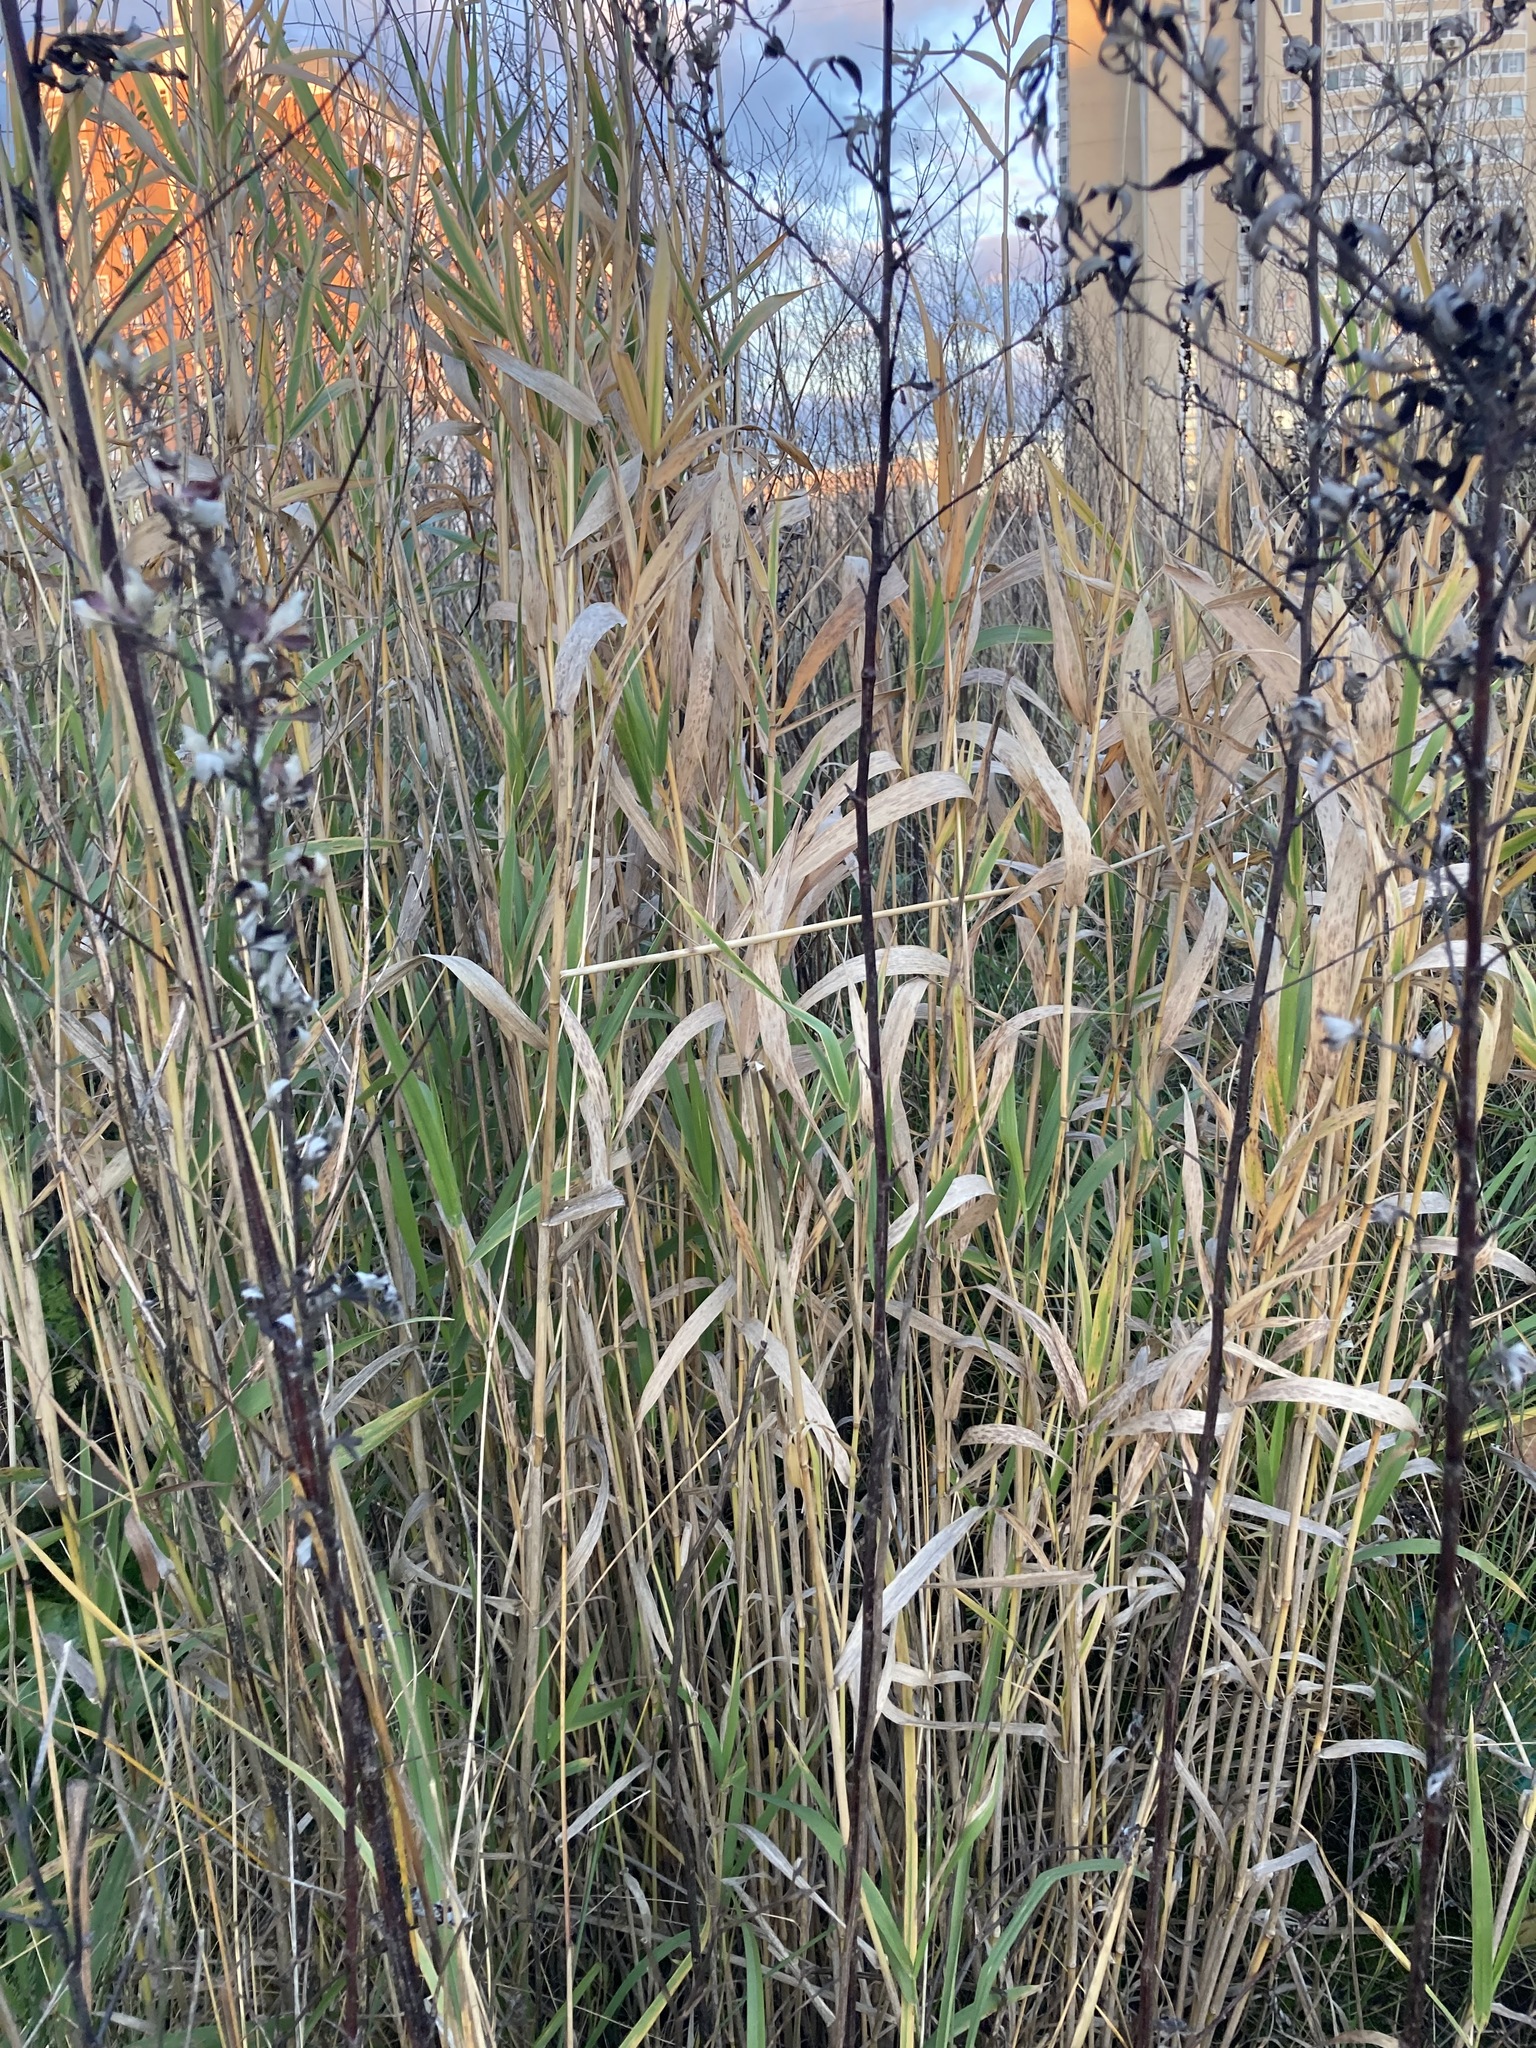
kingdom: Plantae
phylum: Tracheophyta
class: Liliopsida
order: Poales
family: Poaceae
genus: Phalaris
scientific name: Phalaris arundinacea
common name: Reed canary-grass
